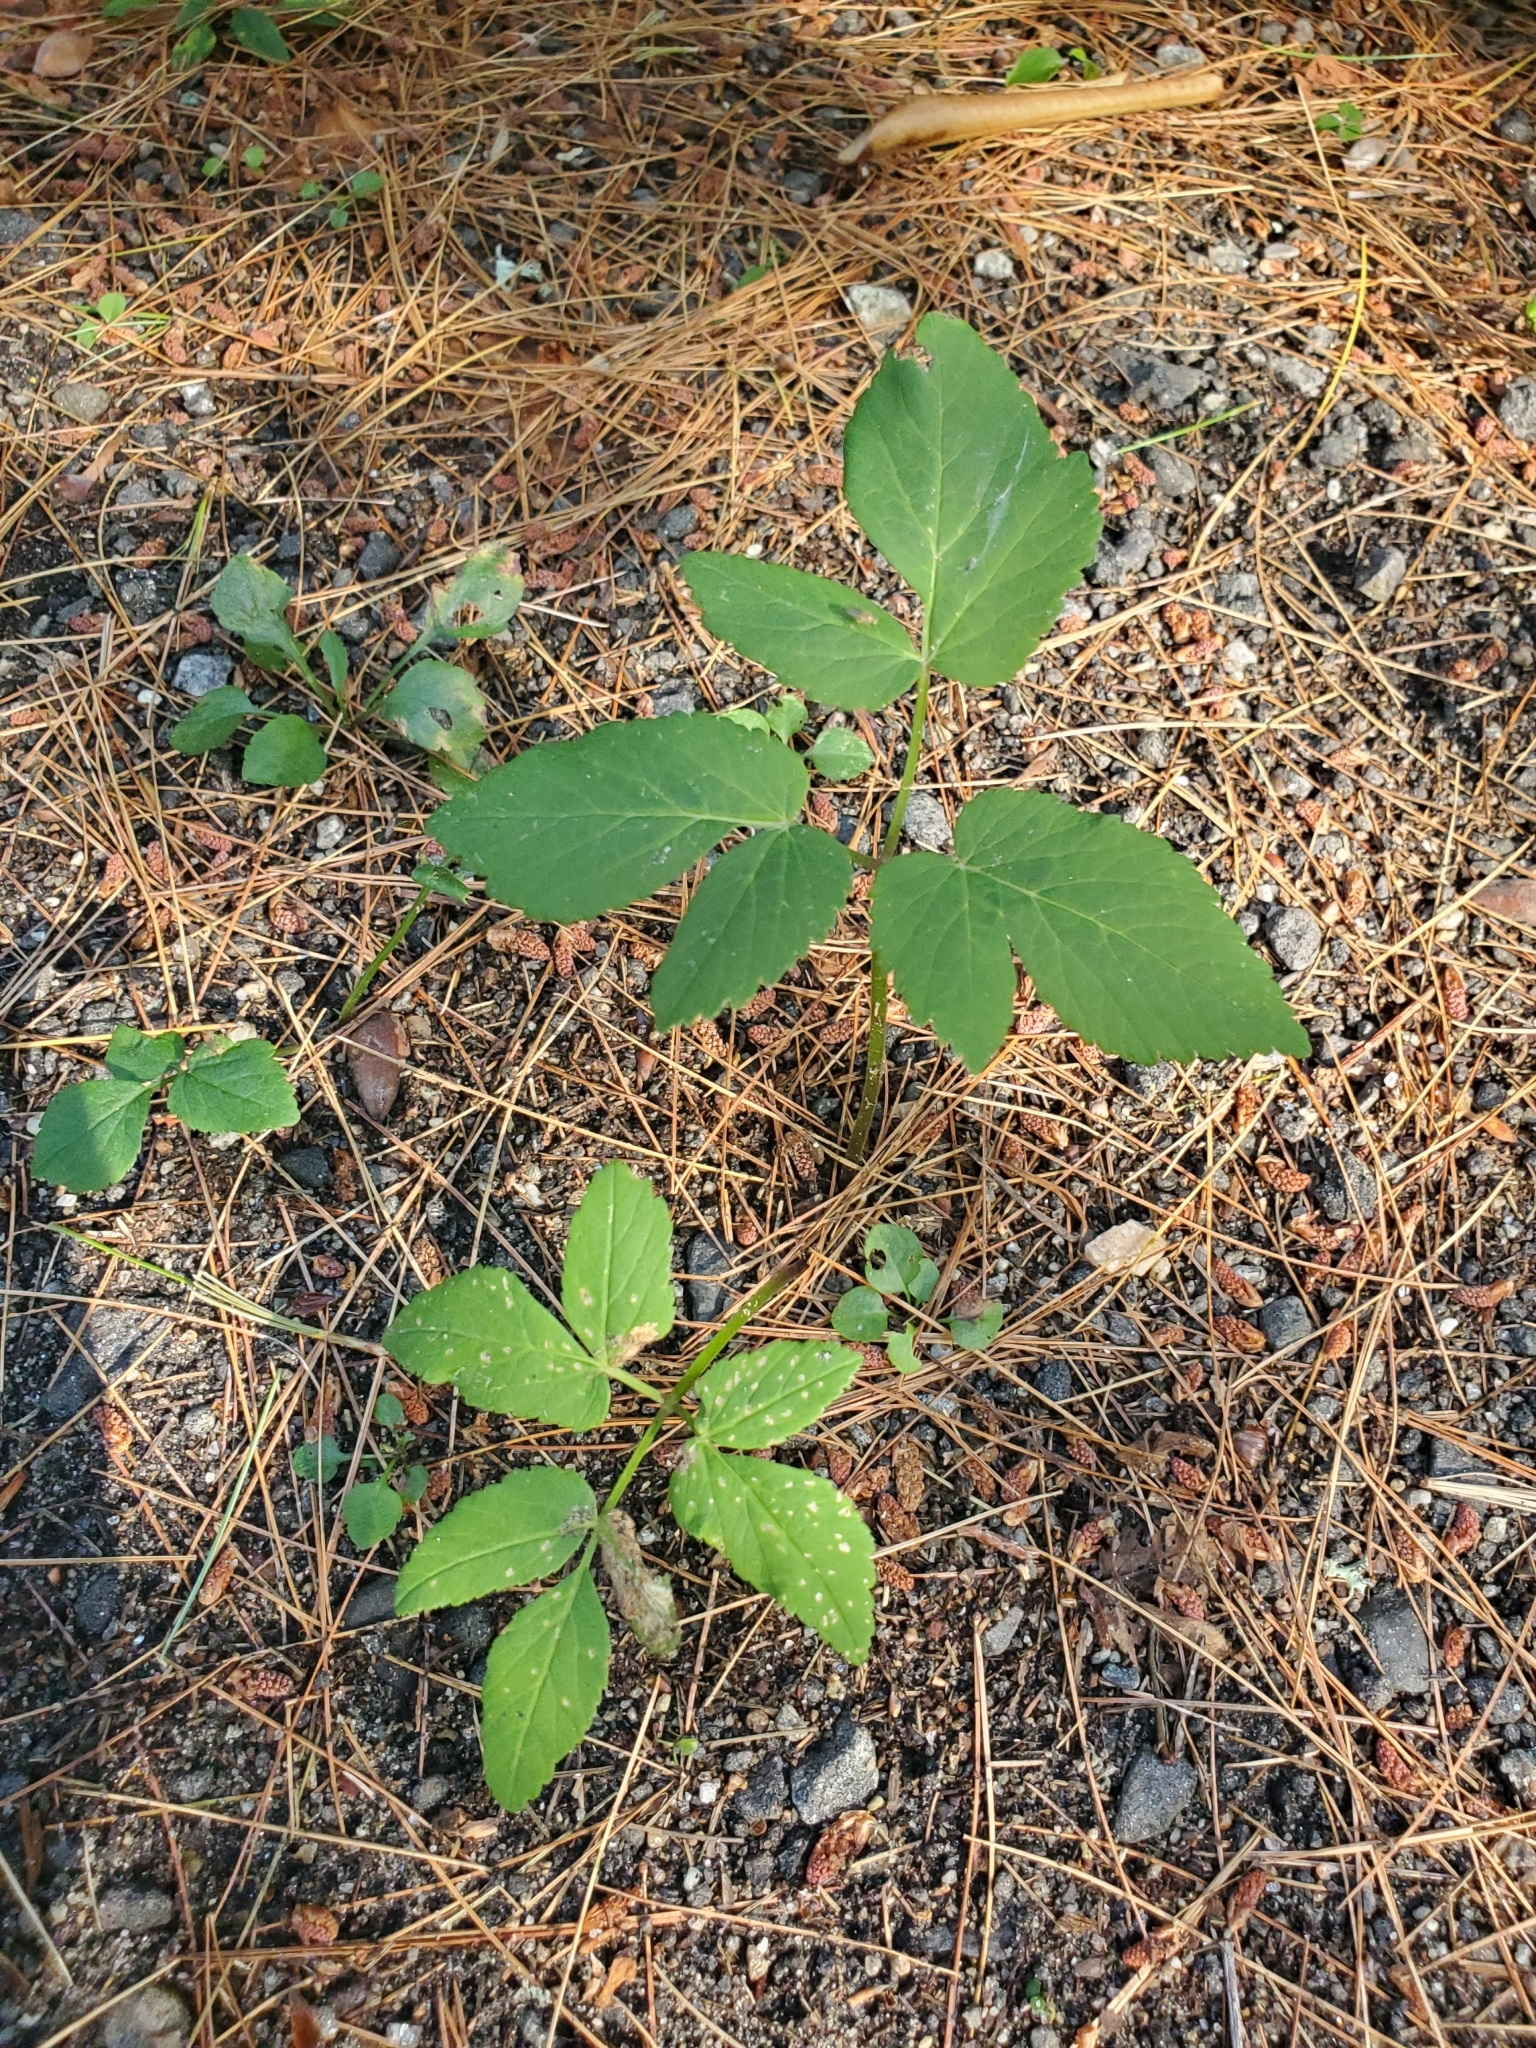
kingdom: Plantae
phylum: Tracheophyta
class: Magnoliopsida
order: Apiales
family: Apiaceae
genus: Aegopodium
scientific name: Aegopodium podagraria
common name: Ground-elder
